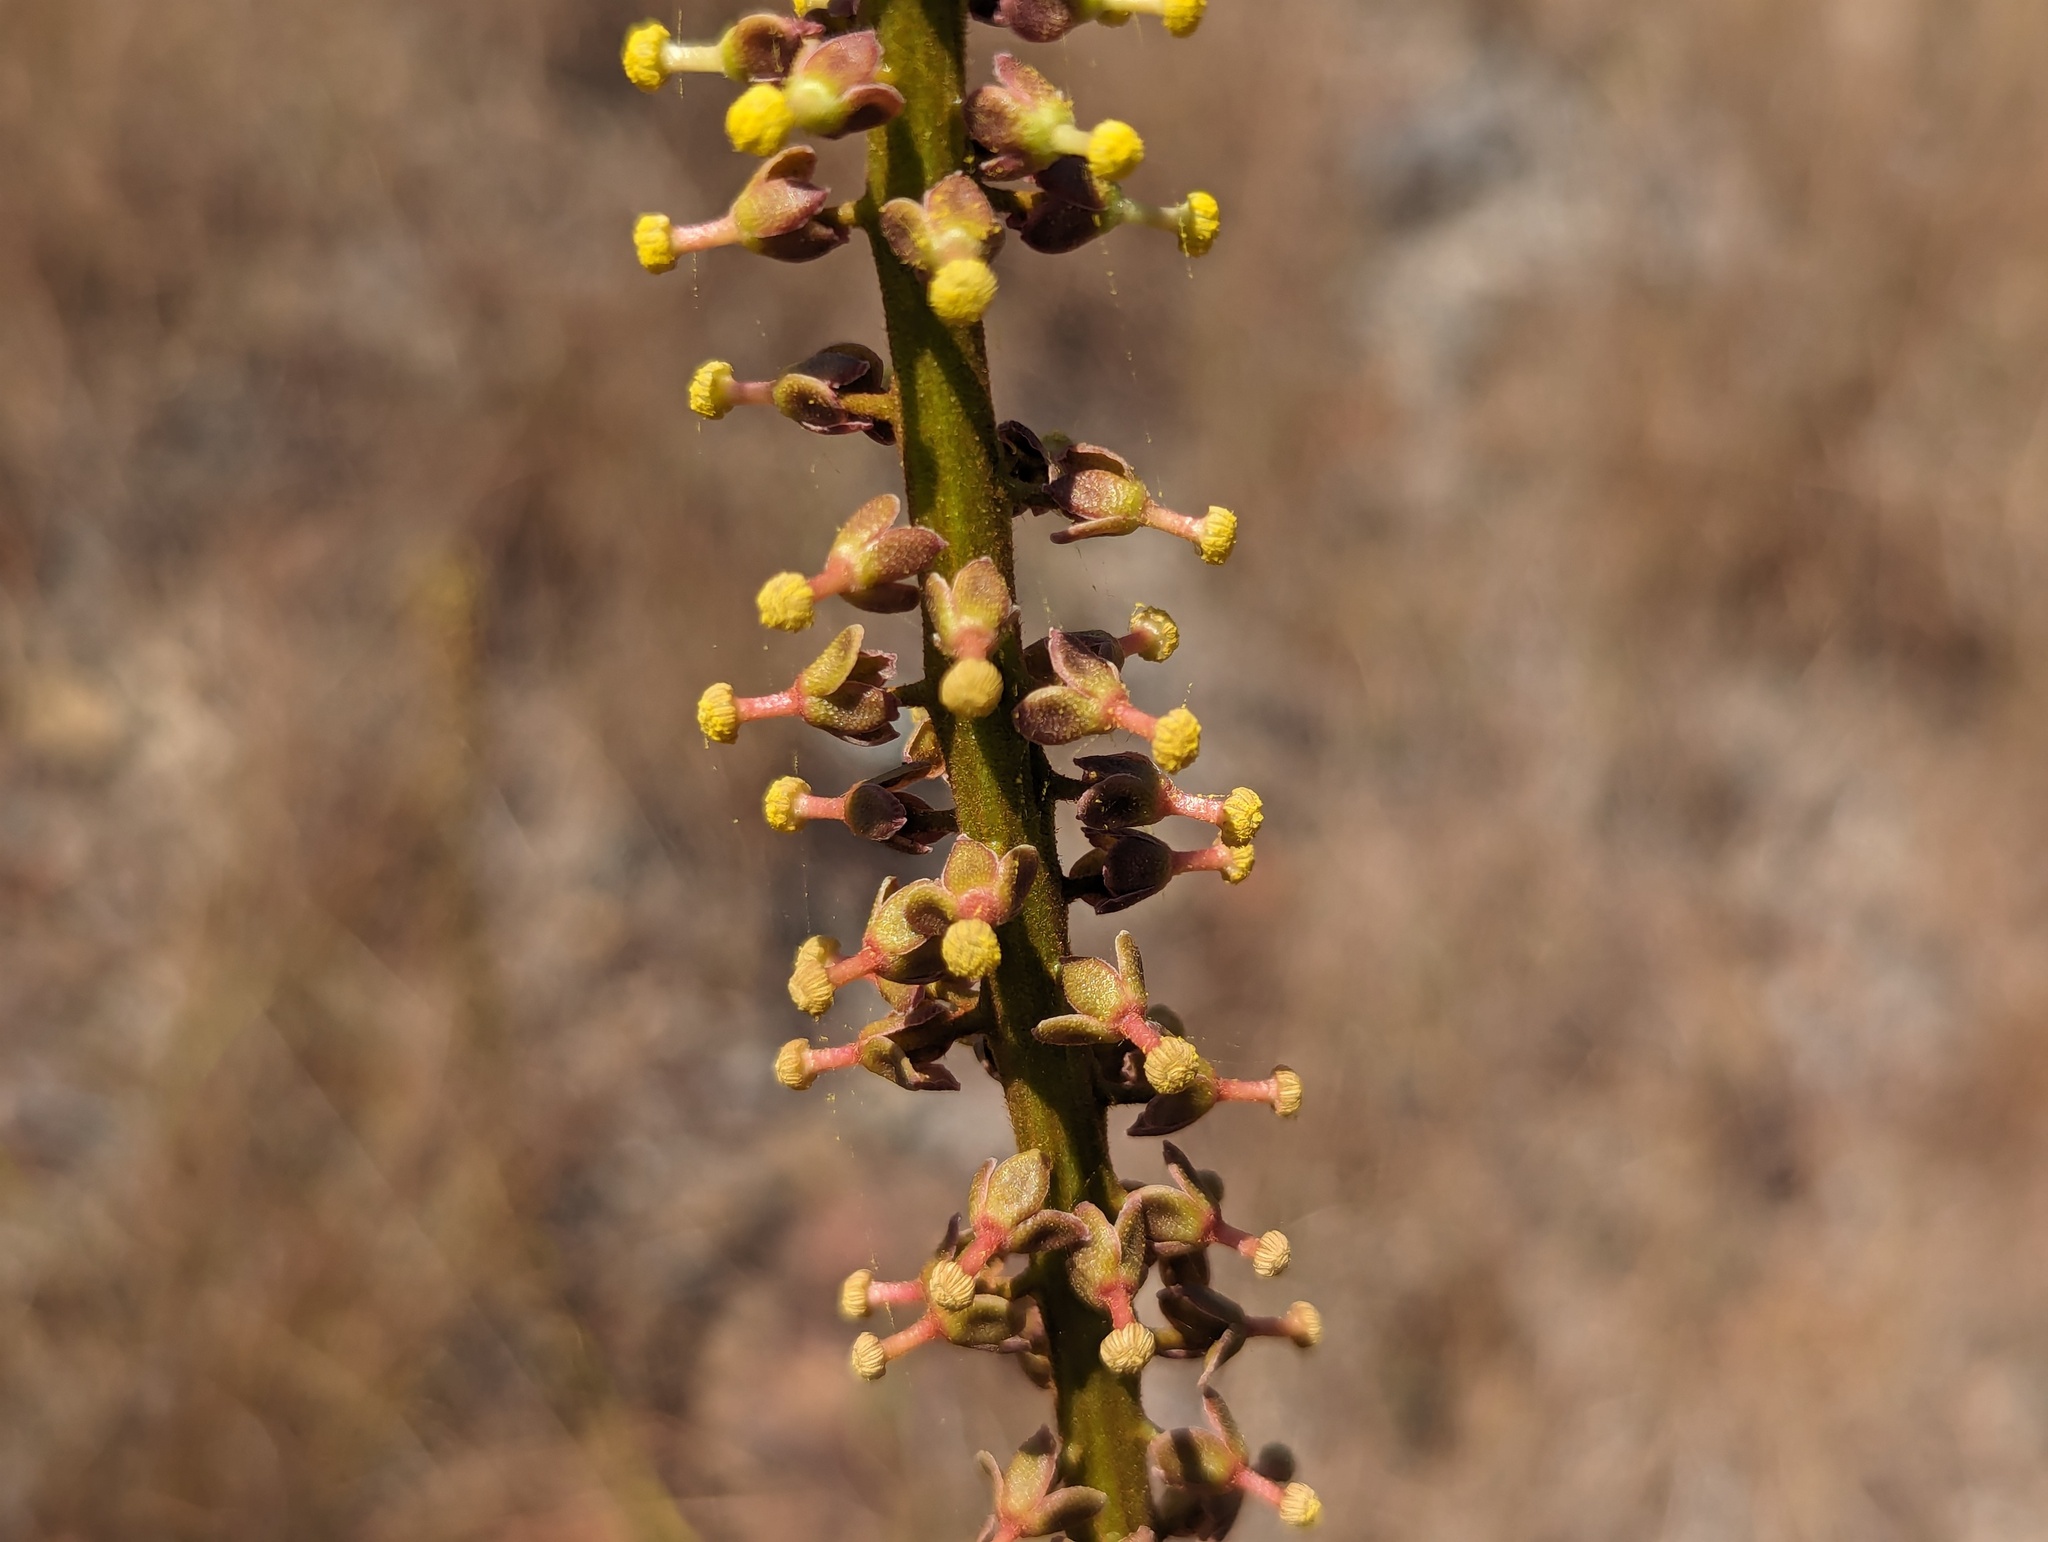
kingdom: Plantae
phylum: Tracheophyta
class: Magnoliopsida
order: Caryophyllales
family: Nepenthaceae
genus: Nepenthes
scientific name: Nepenthes abalata
